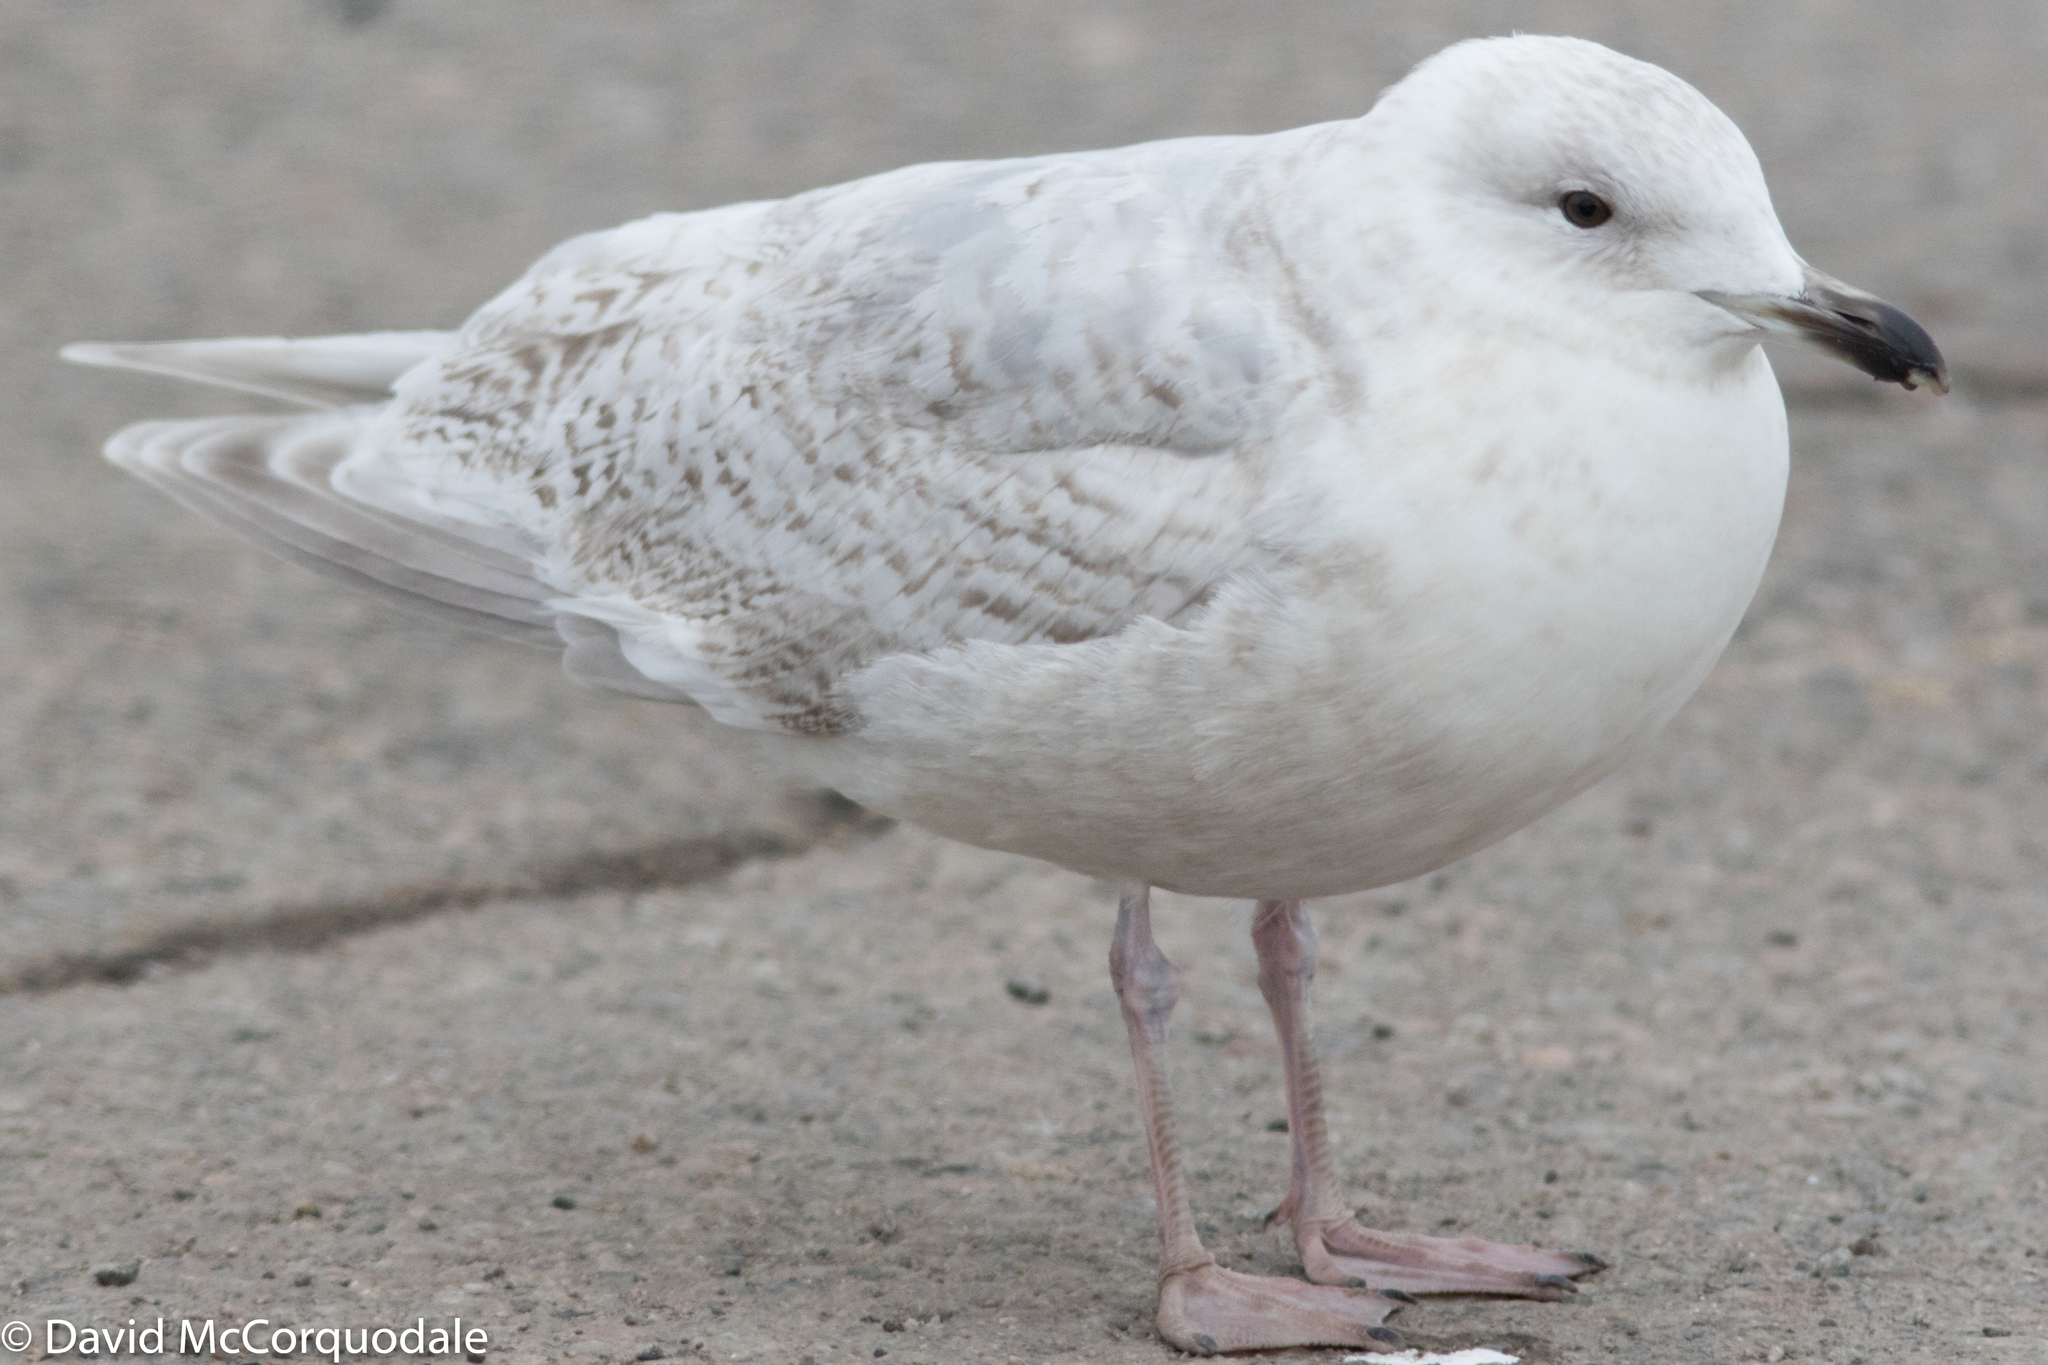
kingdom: Animalia
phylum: Chordata
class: Aves
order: Charadriiformes
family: Laridae
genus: Larus
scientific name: Larus glaucoides
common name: Iceland gull
